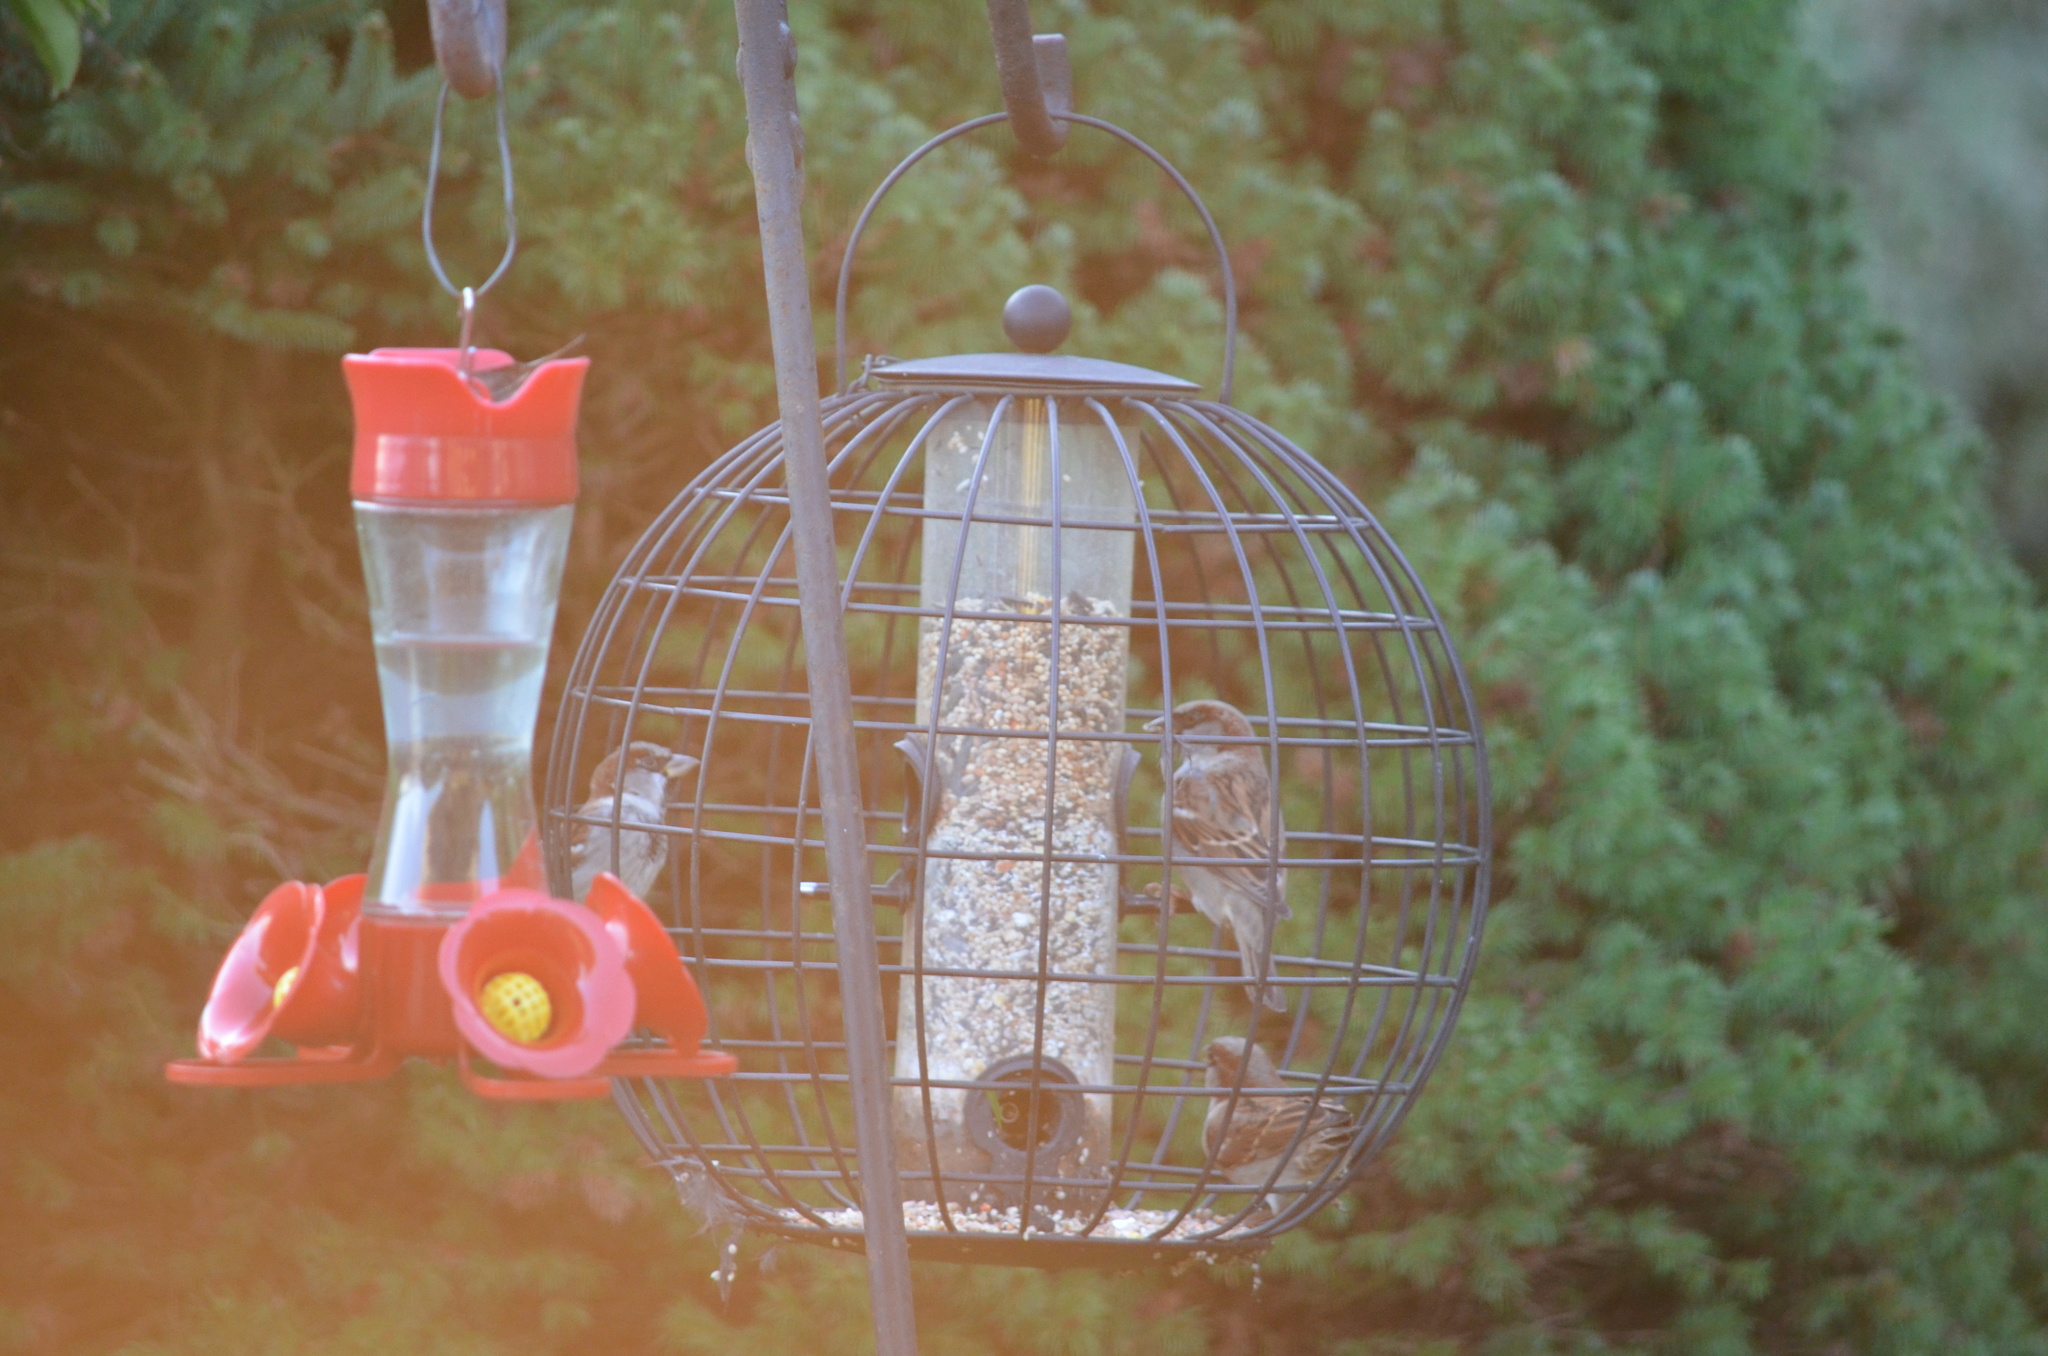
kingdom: Animalia
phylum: Chordata
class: Aves
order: Passeriformes
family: Passeridae
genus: Passer
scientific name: Passer domesticus
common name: House sparrow
